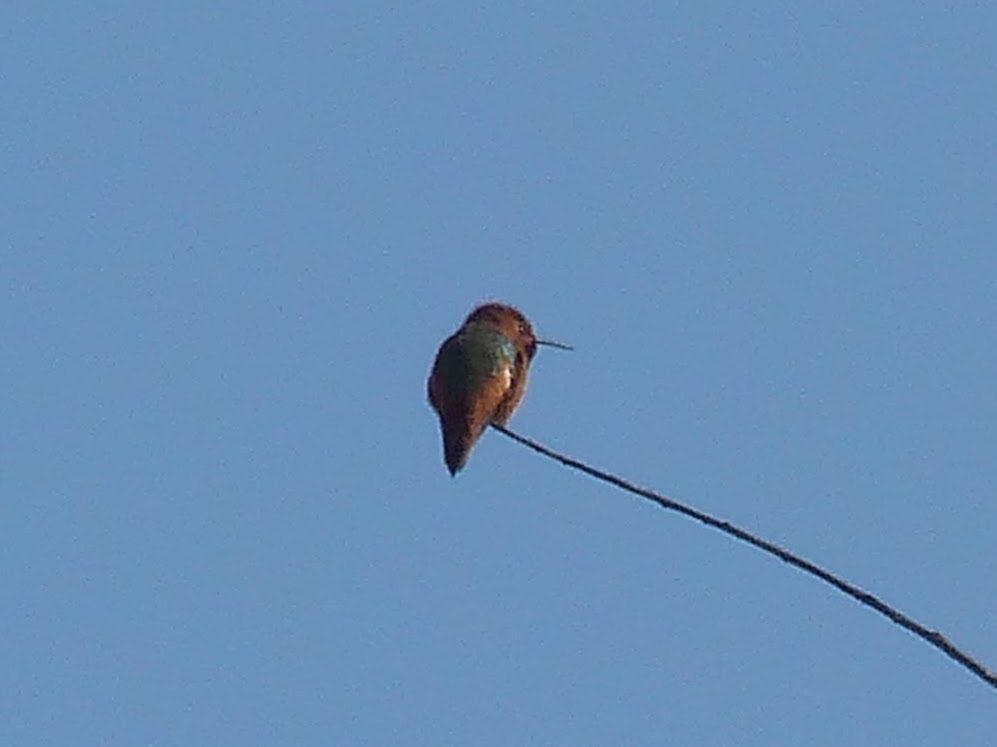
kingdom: Animalia
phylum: Chordata
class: Aves
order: Apodiformes
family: Trochilidae
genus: Selasphorus
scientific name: Selasphorus sasin
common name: Allen's hummingbird
